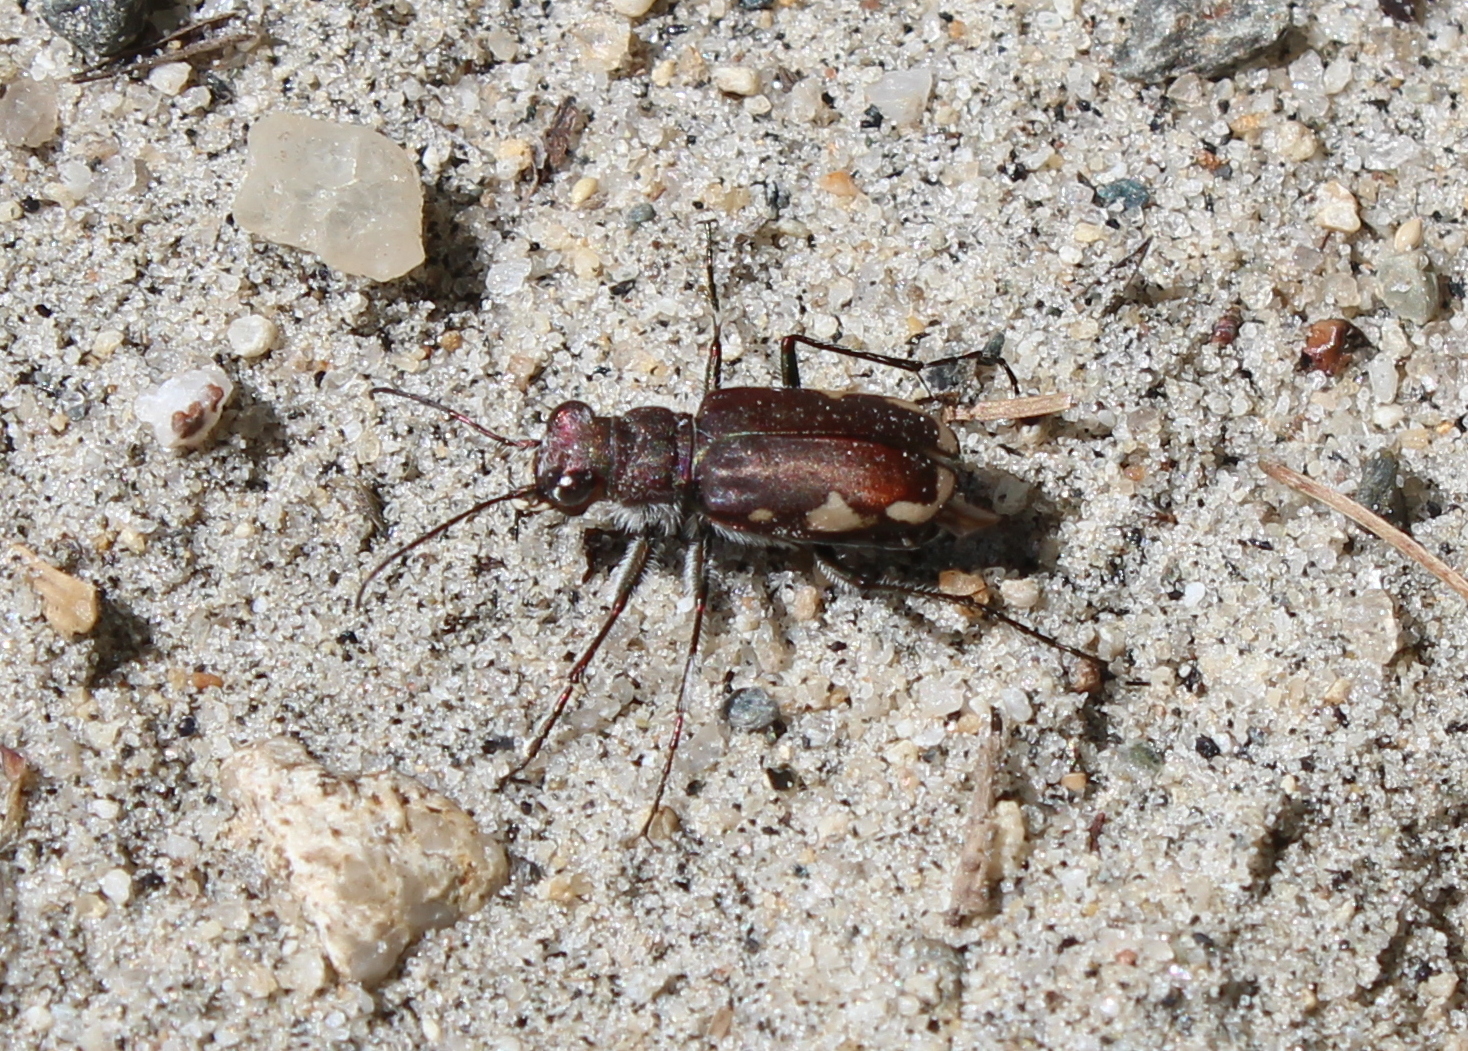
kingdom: Animalia
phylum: Arthropoda
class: Insecta
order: Coleoptera
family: Carabidae
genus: Cicindela
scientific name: Cicindela scutellaris
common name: Festive tiger beetle
